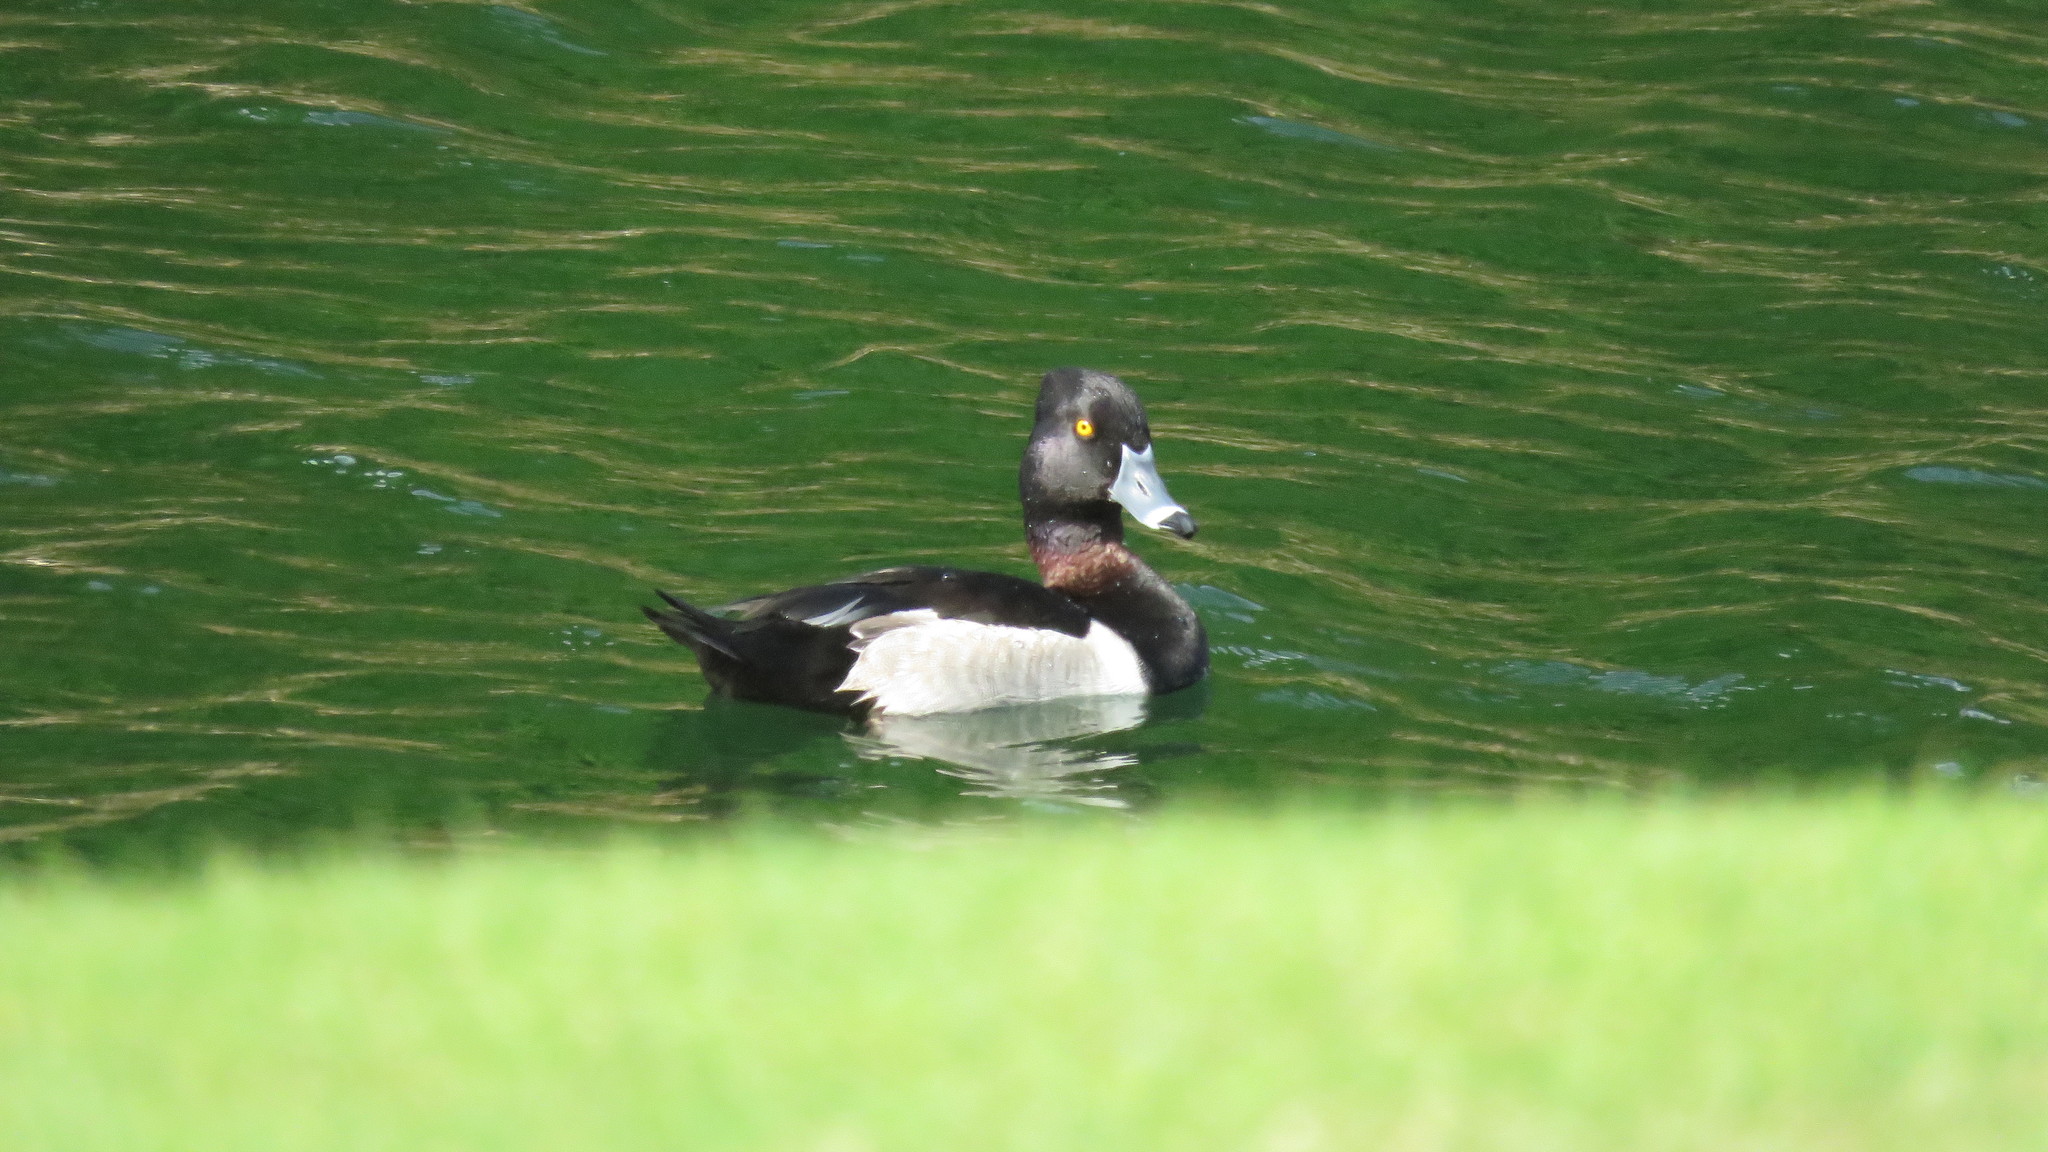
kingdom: Animalia
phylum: Chordata
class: Aves
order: Anseriformes
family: Anatidae
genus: Aythya
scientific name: Aythya collaris
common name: Ring-necked duck
